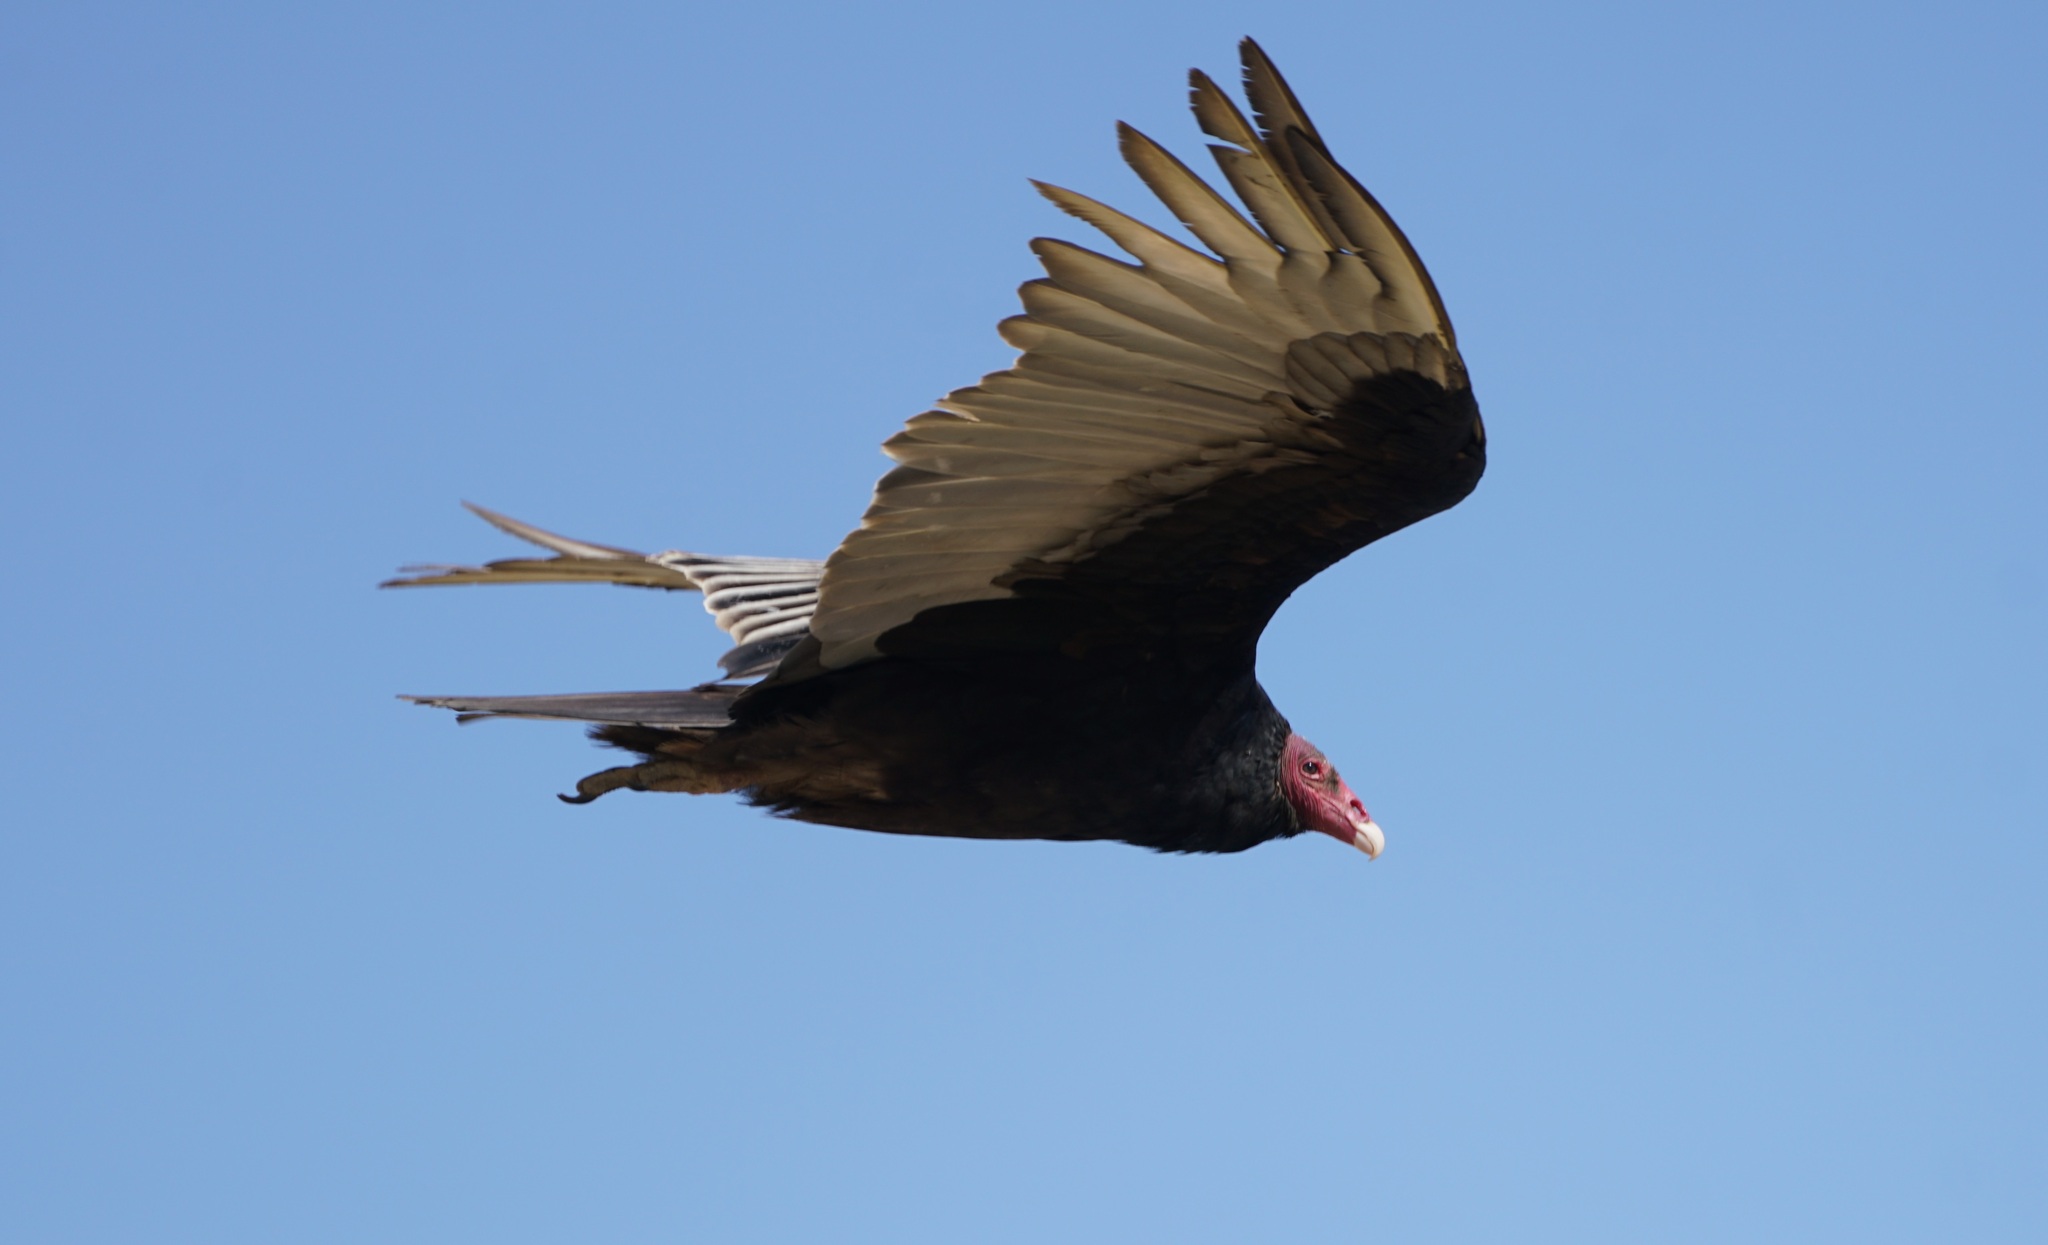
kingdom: Animalia
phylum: Chordata
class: Aves
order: Accipitriformes
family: Cathartidae
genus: Cathartes
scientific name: Cathartes aura
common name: Turkey vulture
